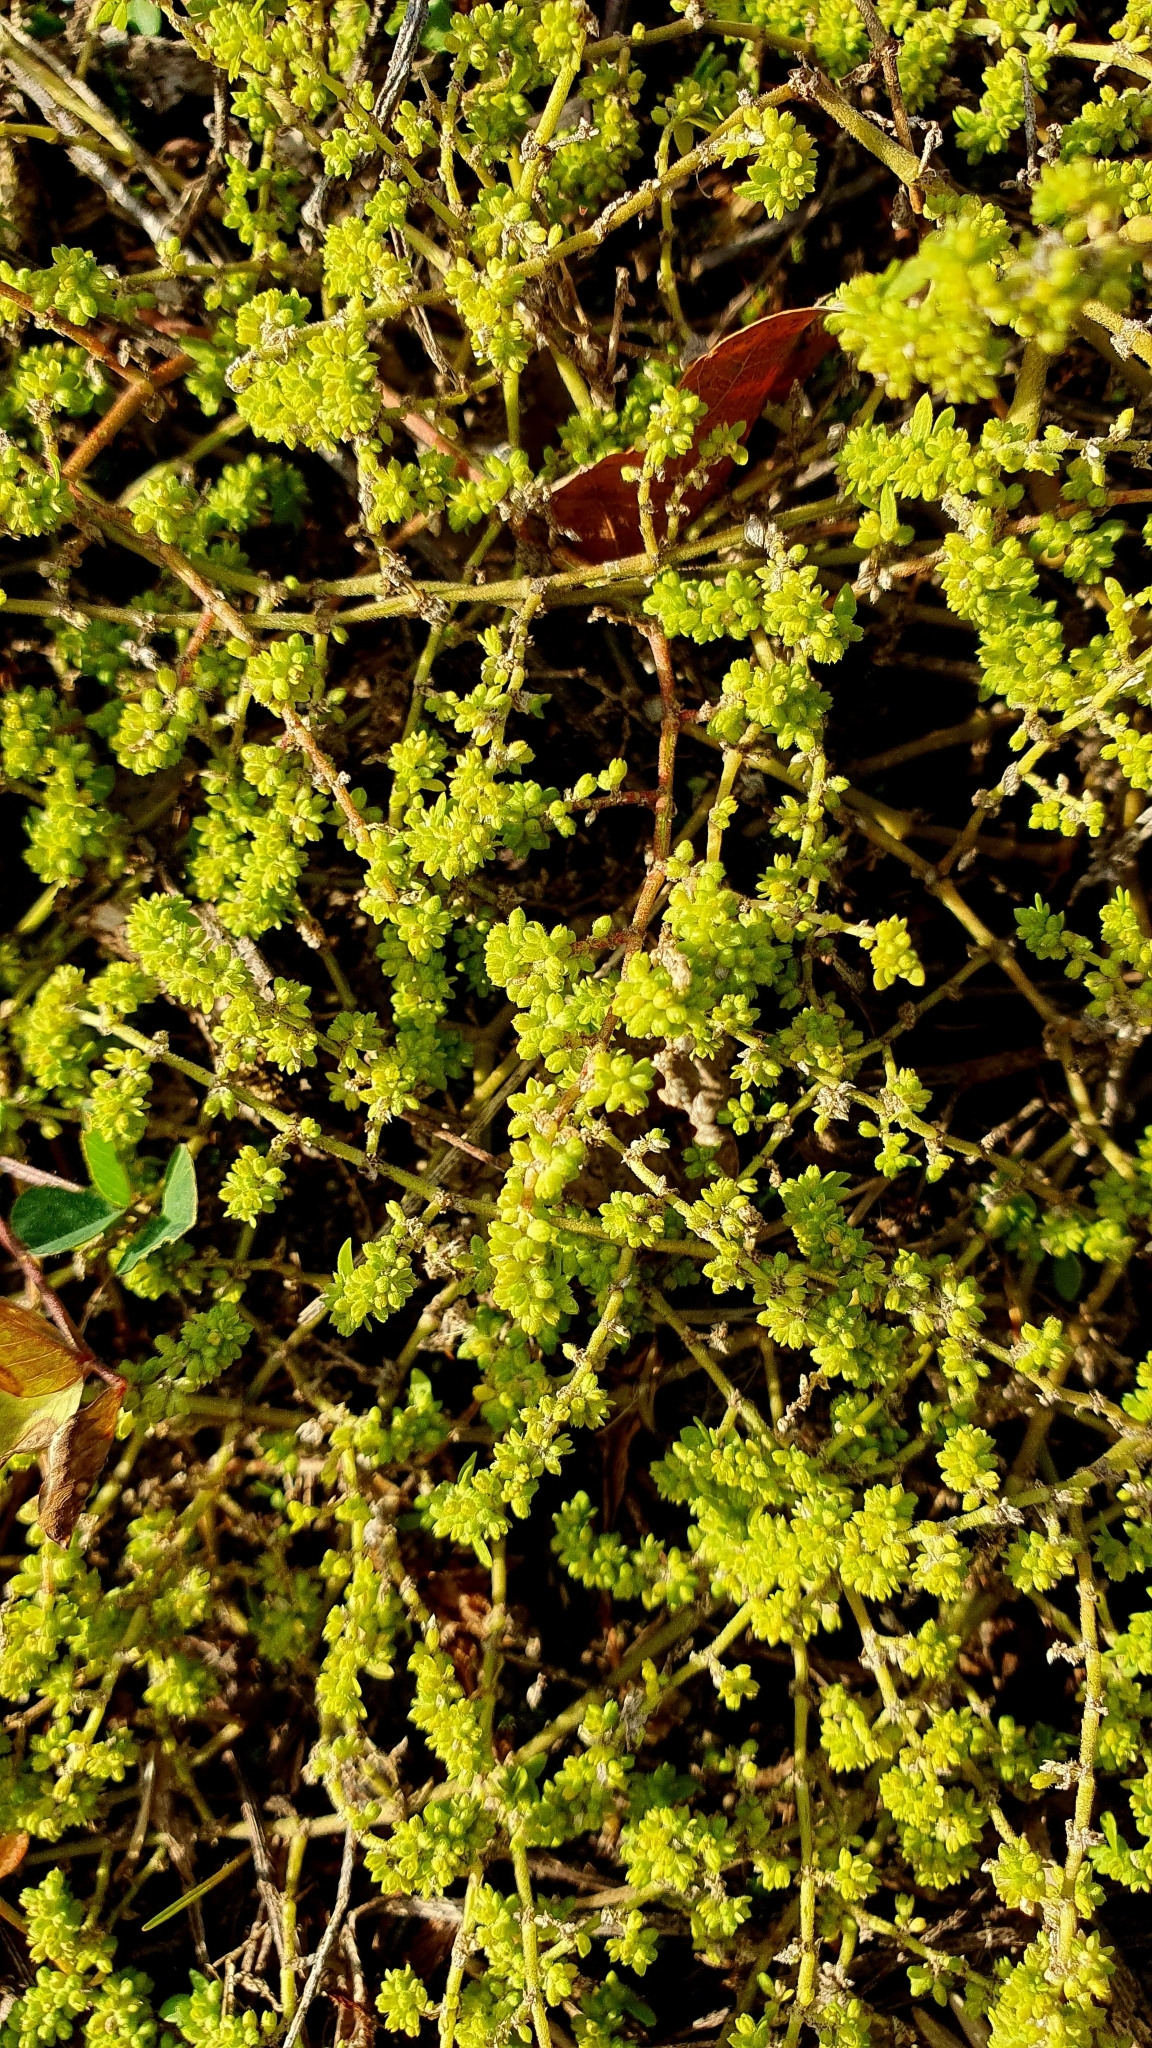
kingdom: Plantae
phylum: Tracheophyta
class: Magnoliopsida
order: Caryophyllales
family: Caryophyllaceae
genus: Herniaria
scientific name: Herniaria polygama
